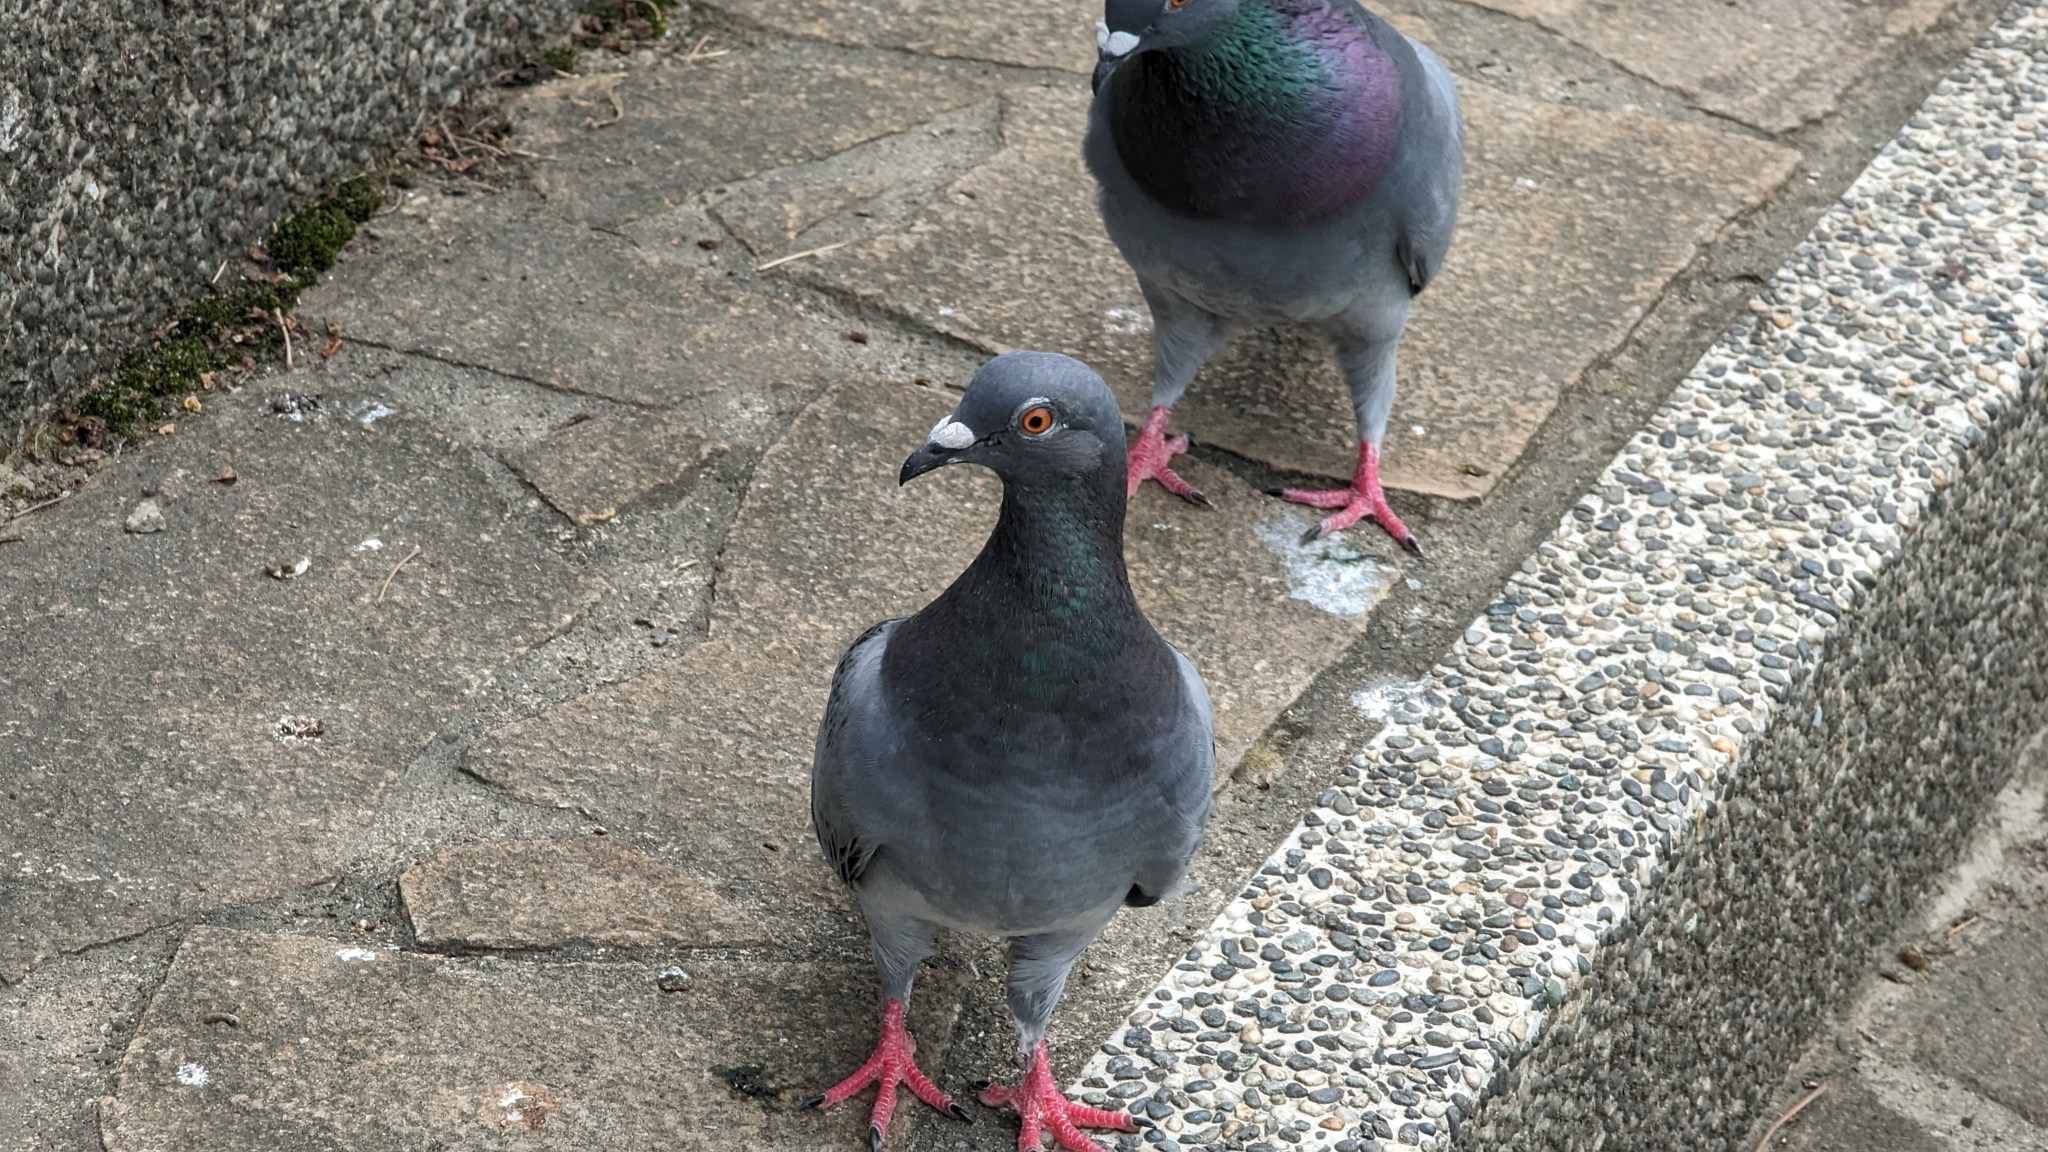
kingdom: Animalia
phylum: Chordata
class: Aves
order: Columbiformes
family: Columbidae
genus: Columba
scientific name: Columba livia
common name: Rock pigeon
